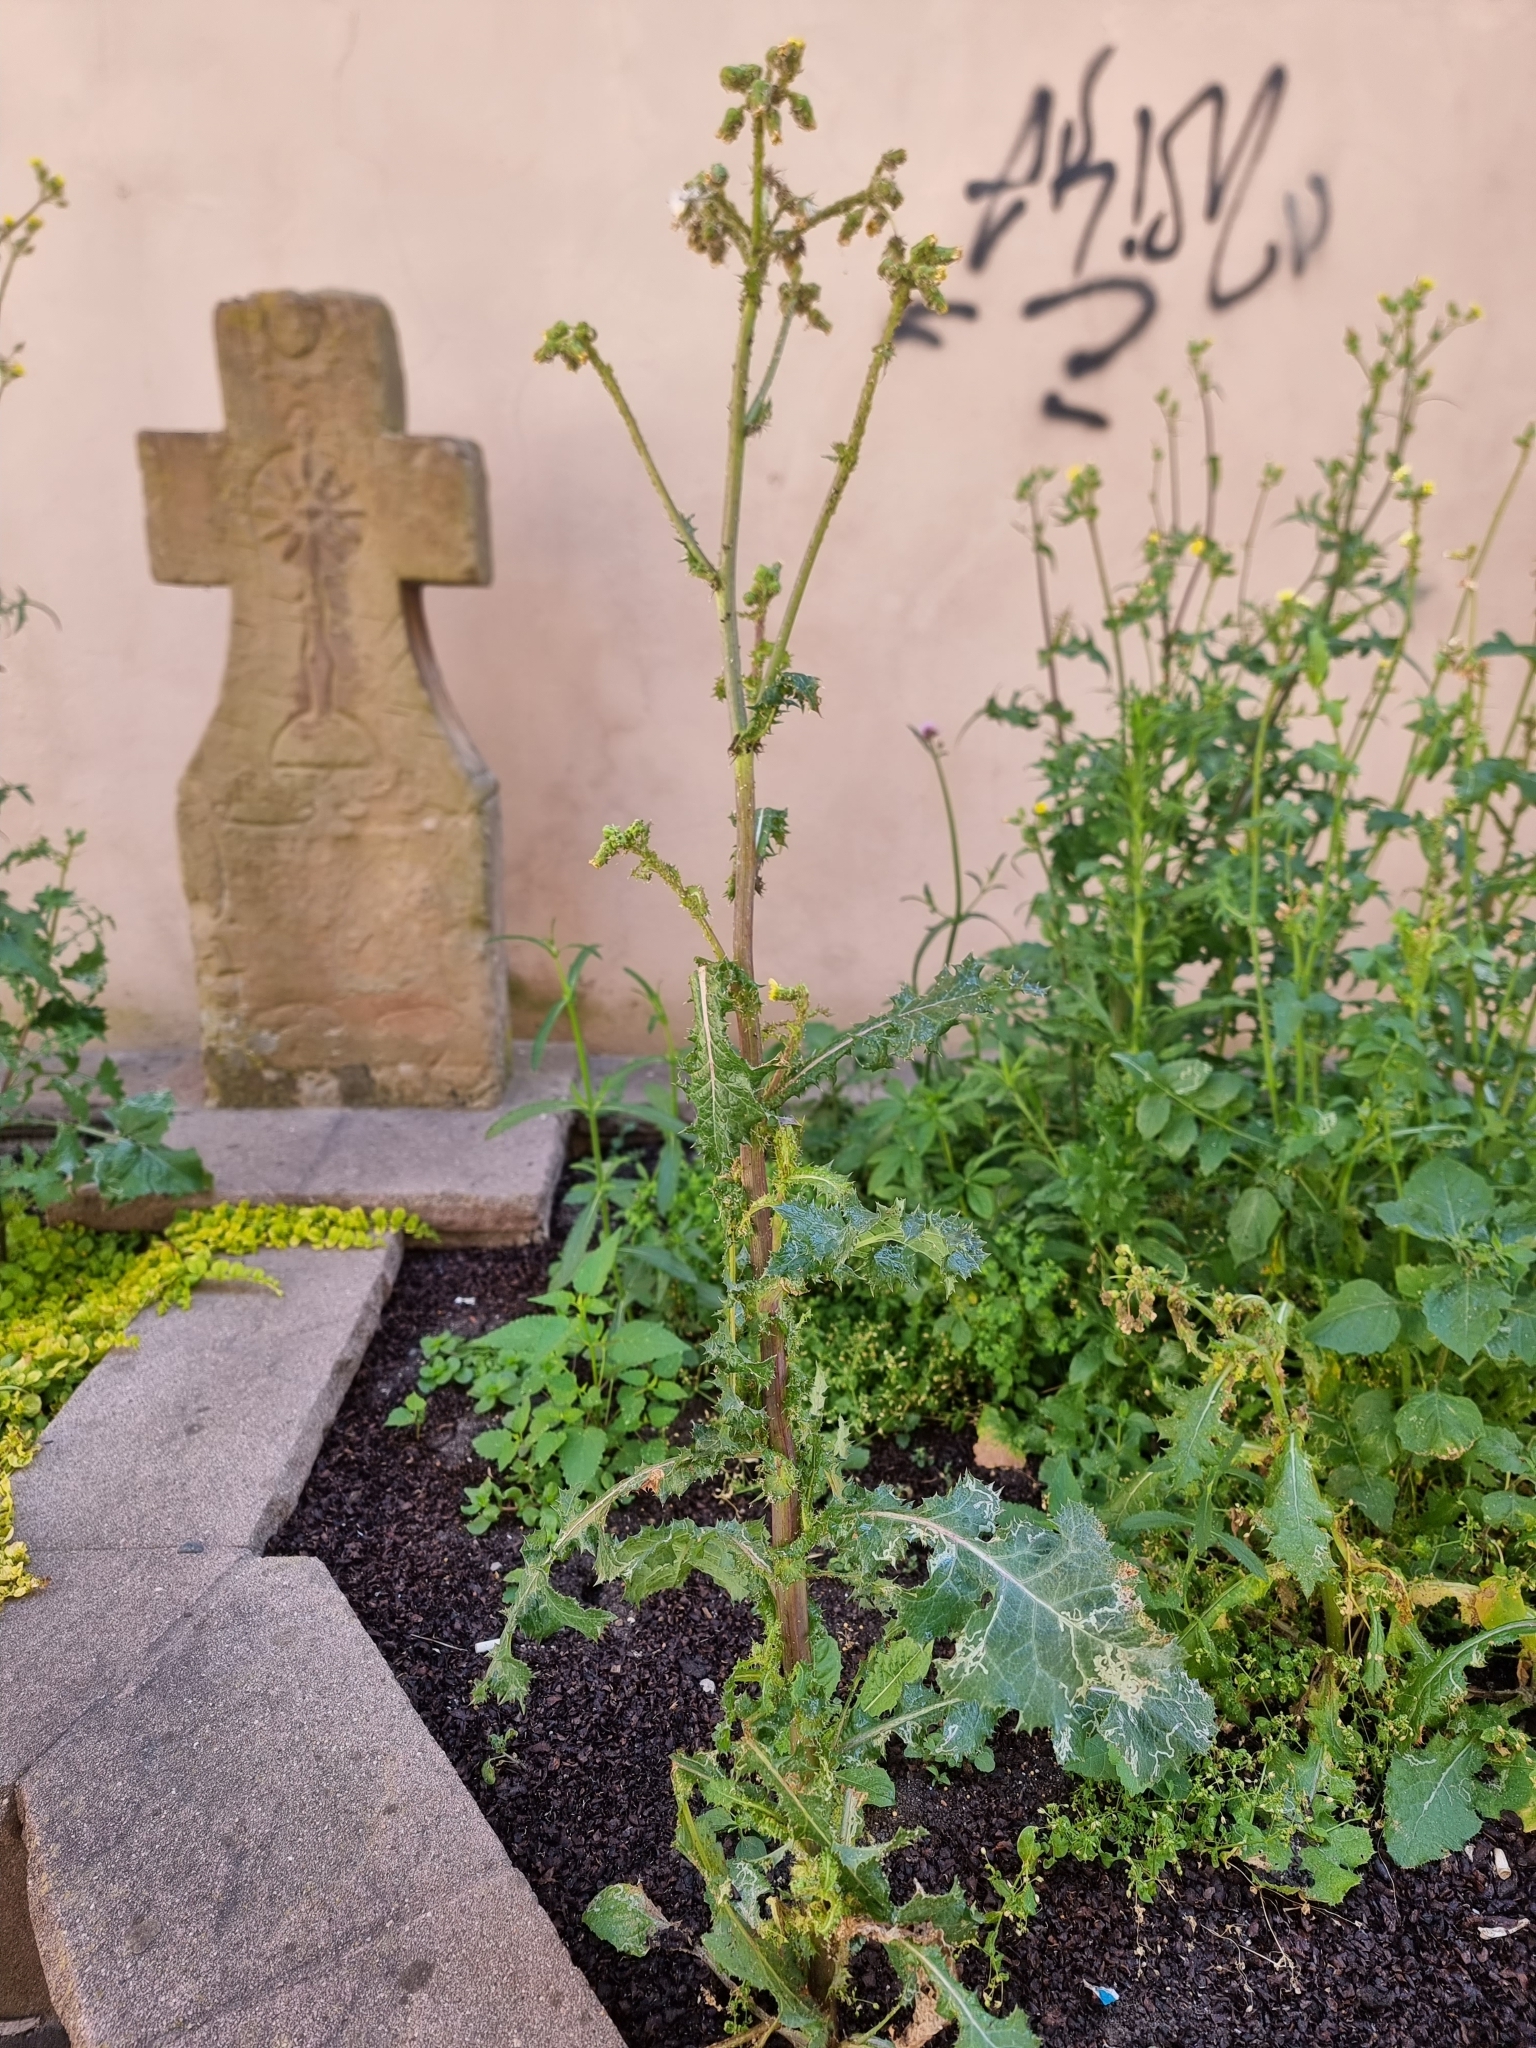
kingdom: Plantae
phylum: Tracheophyta
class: Magnoliopsida
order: Asterales
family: Asteraceae
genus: Sonchus
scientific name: Sonchus asper
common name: Prickly sow-thistle
